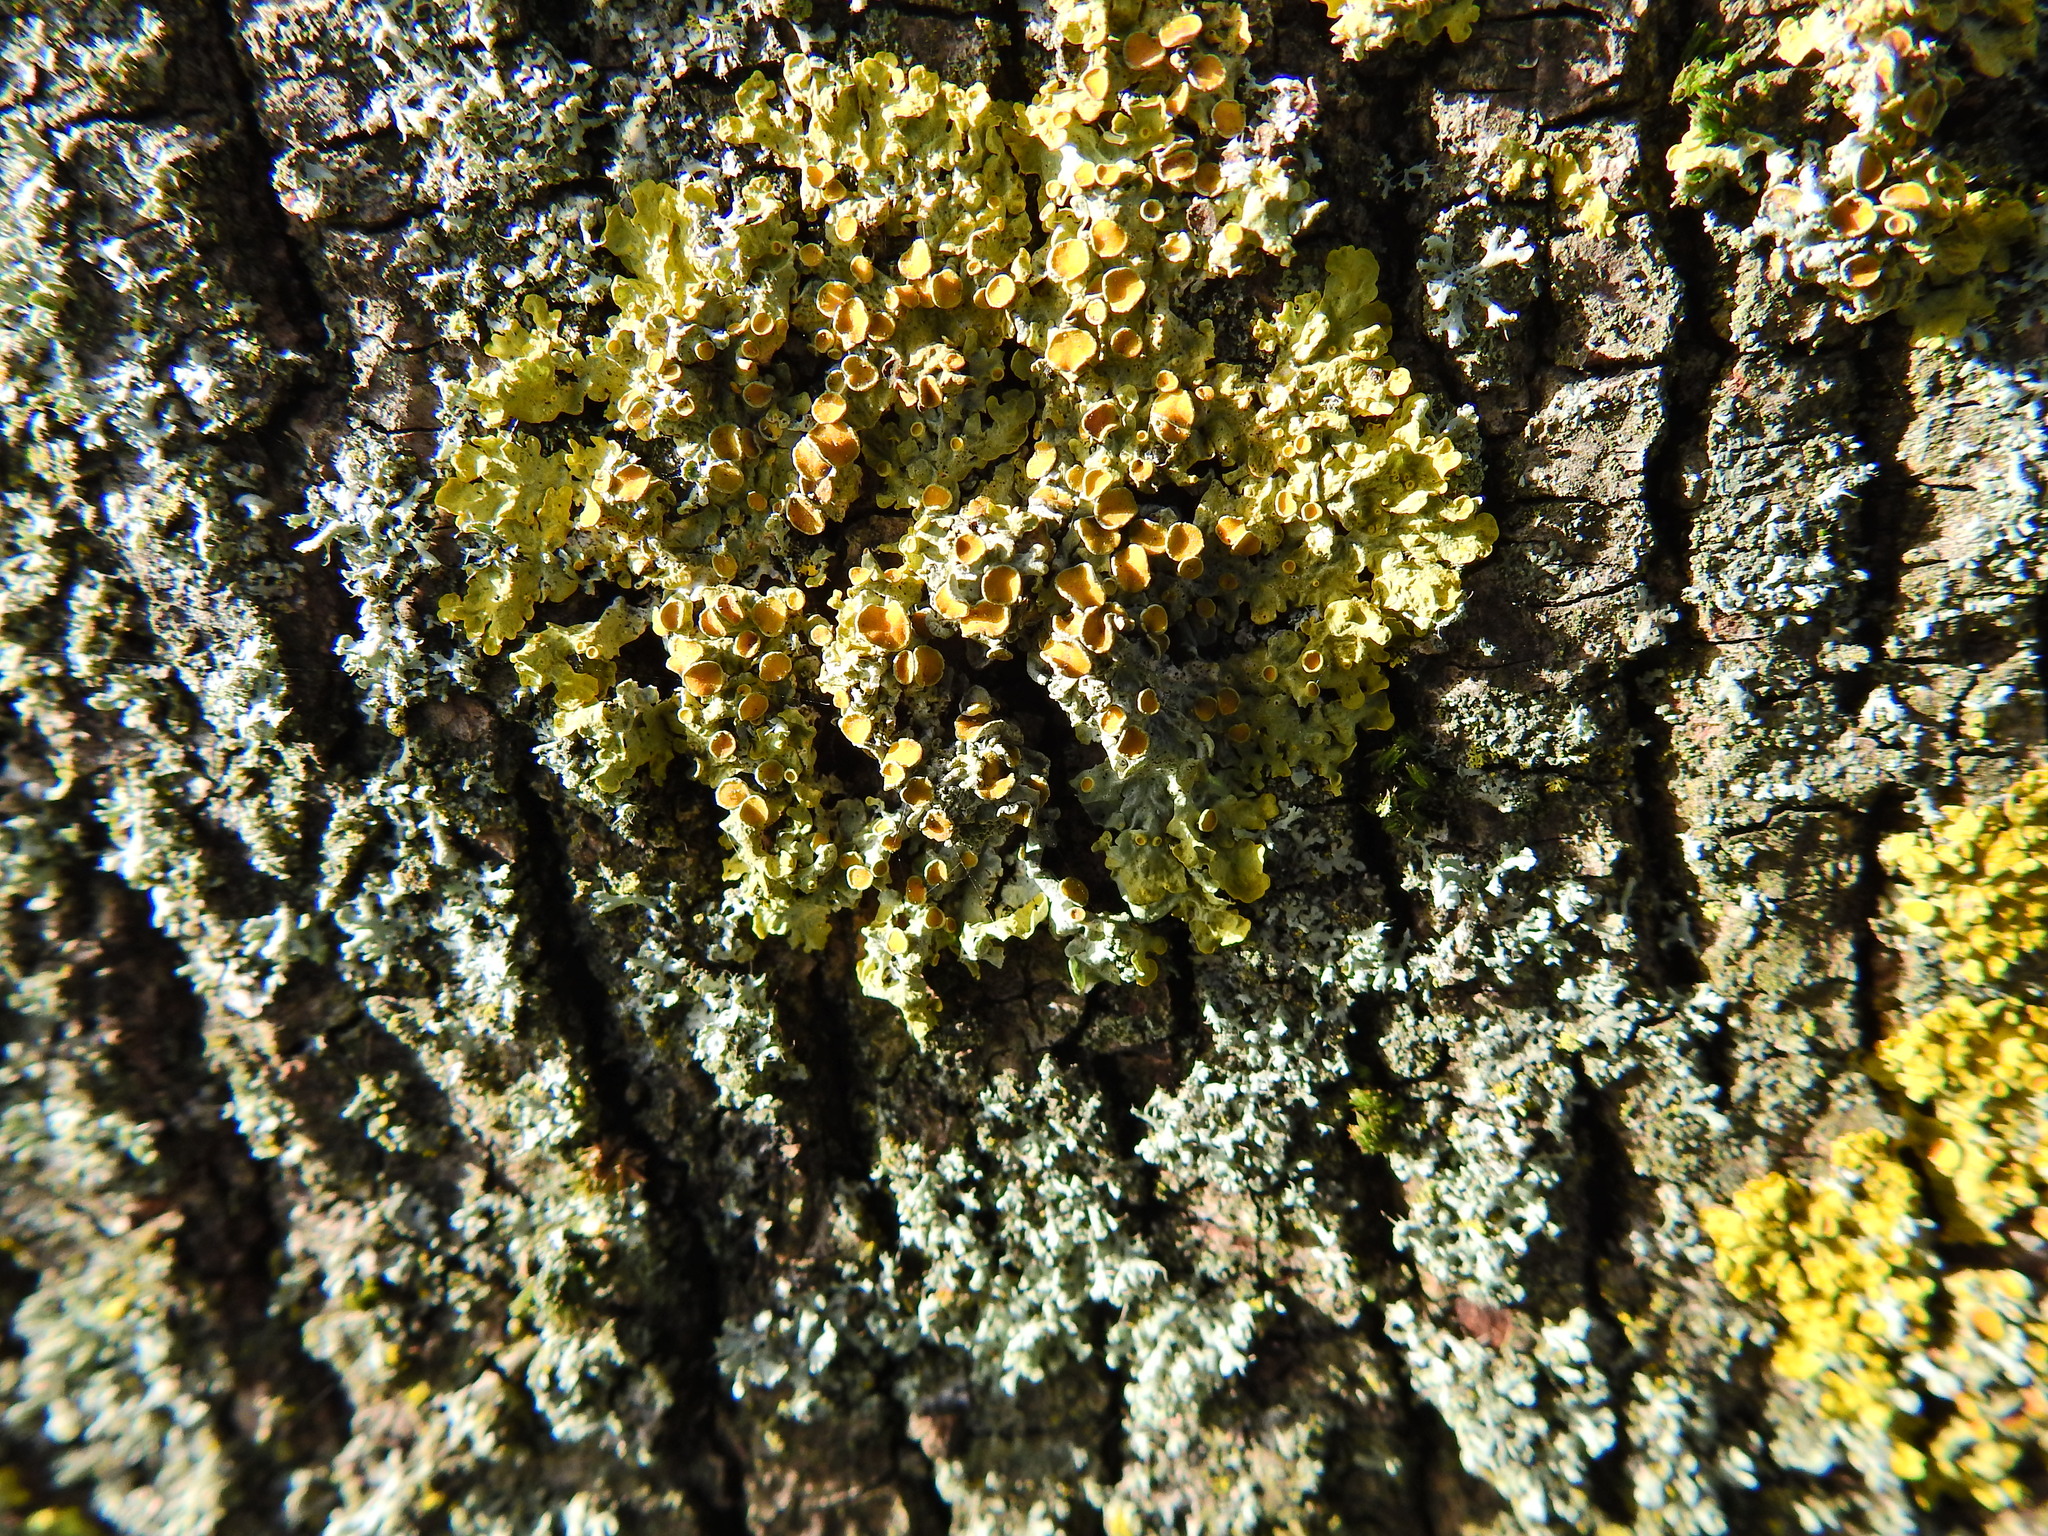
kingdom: Fungi
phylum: Ascomycota
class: Lecanoromycetes
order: Teloschistales
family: Teloschistaceae
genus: Xanthoria
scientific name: Xanthoria parietina
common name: Common orange lichen
